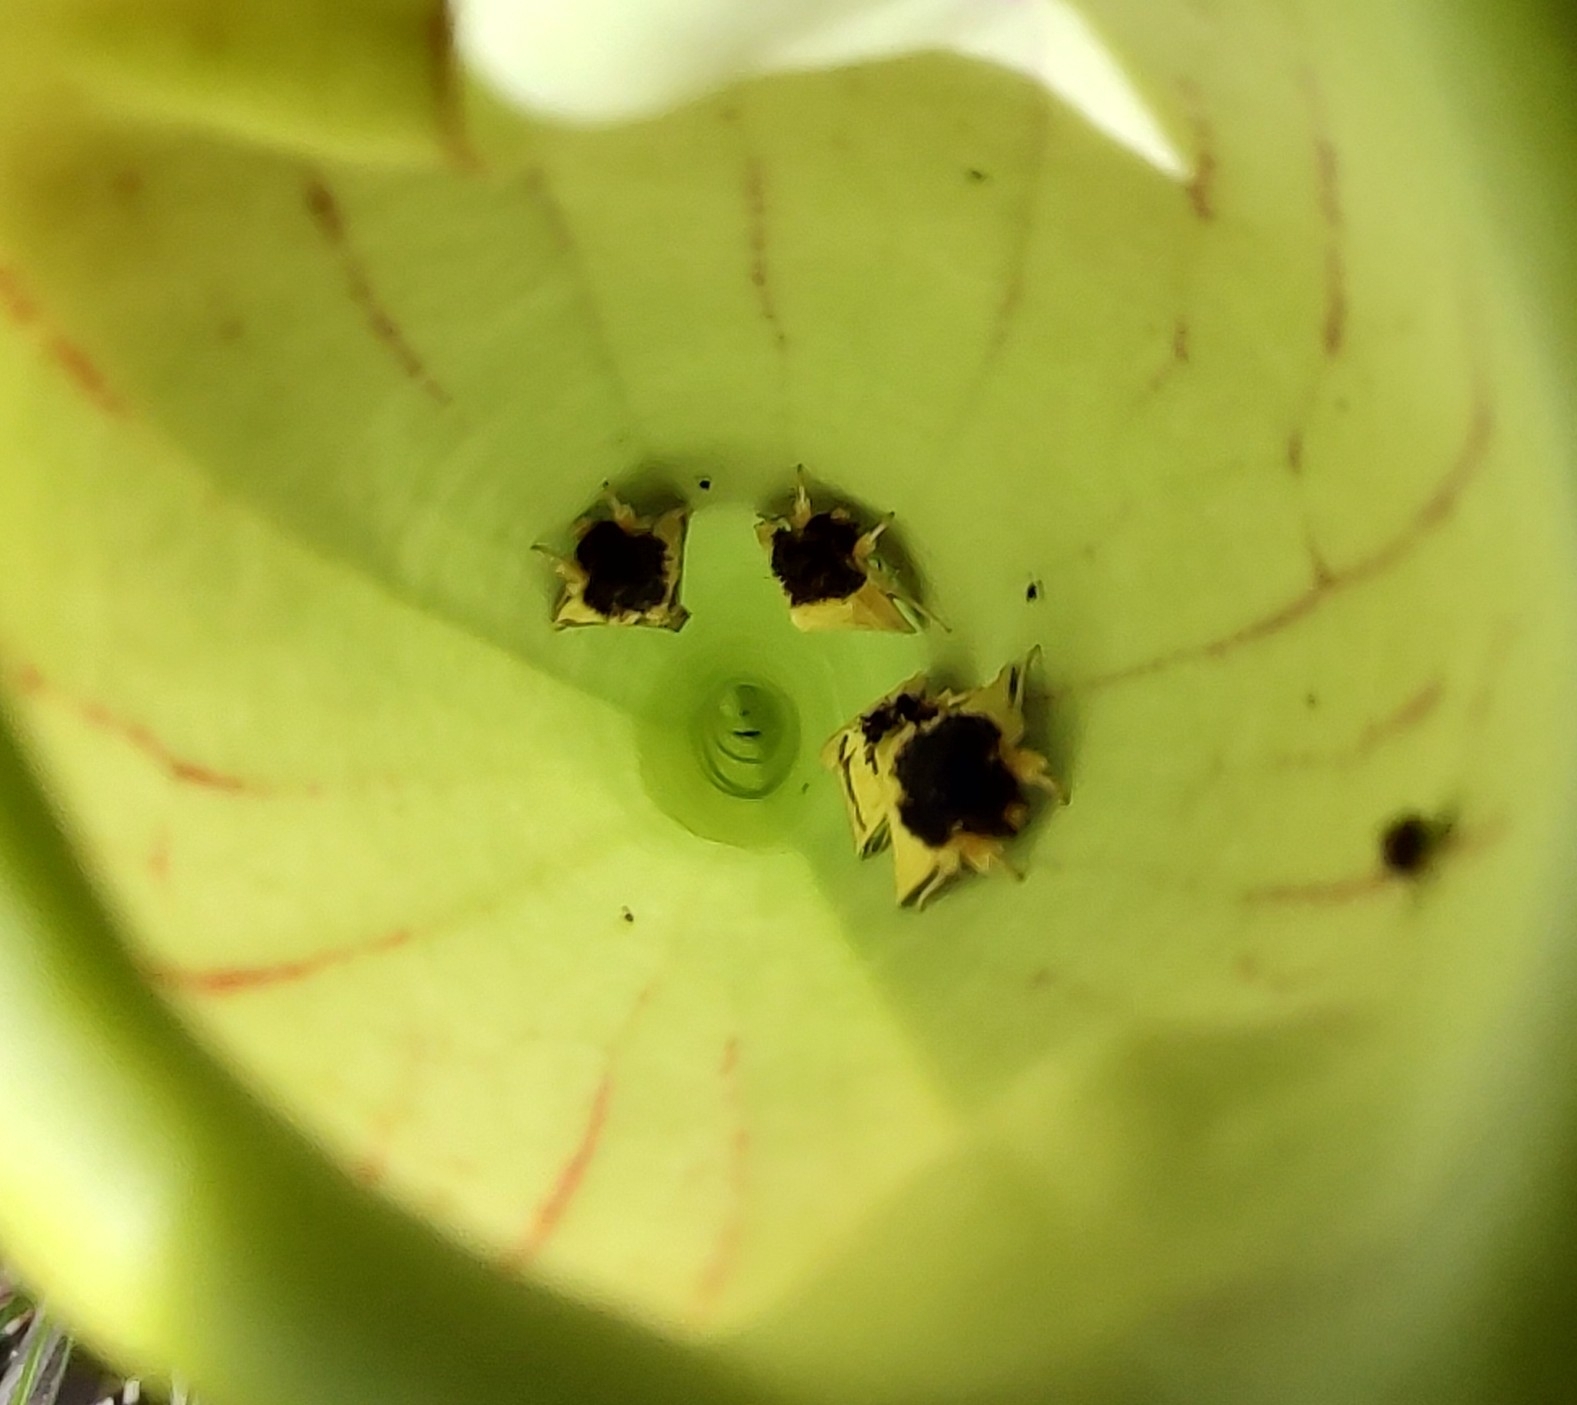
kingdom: Animalia
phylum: Arthropoda
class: Insecta
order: Lepidoptera
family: Noctuidae
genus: Exyra
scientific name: Exyra semicrocea
